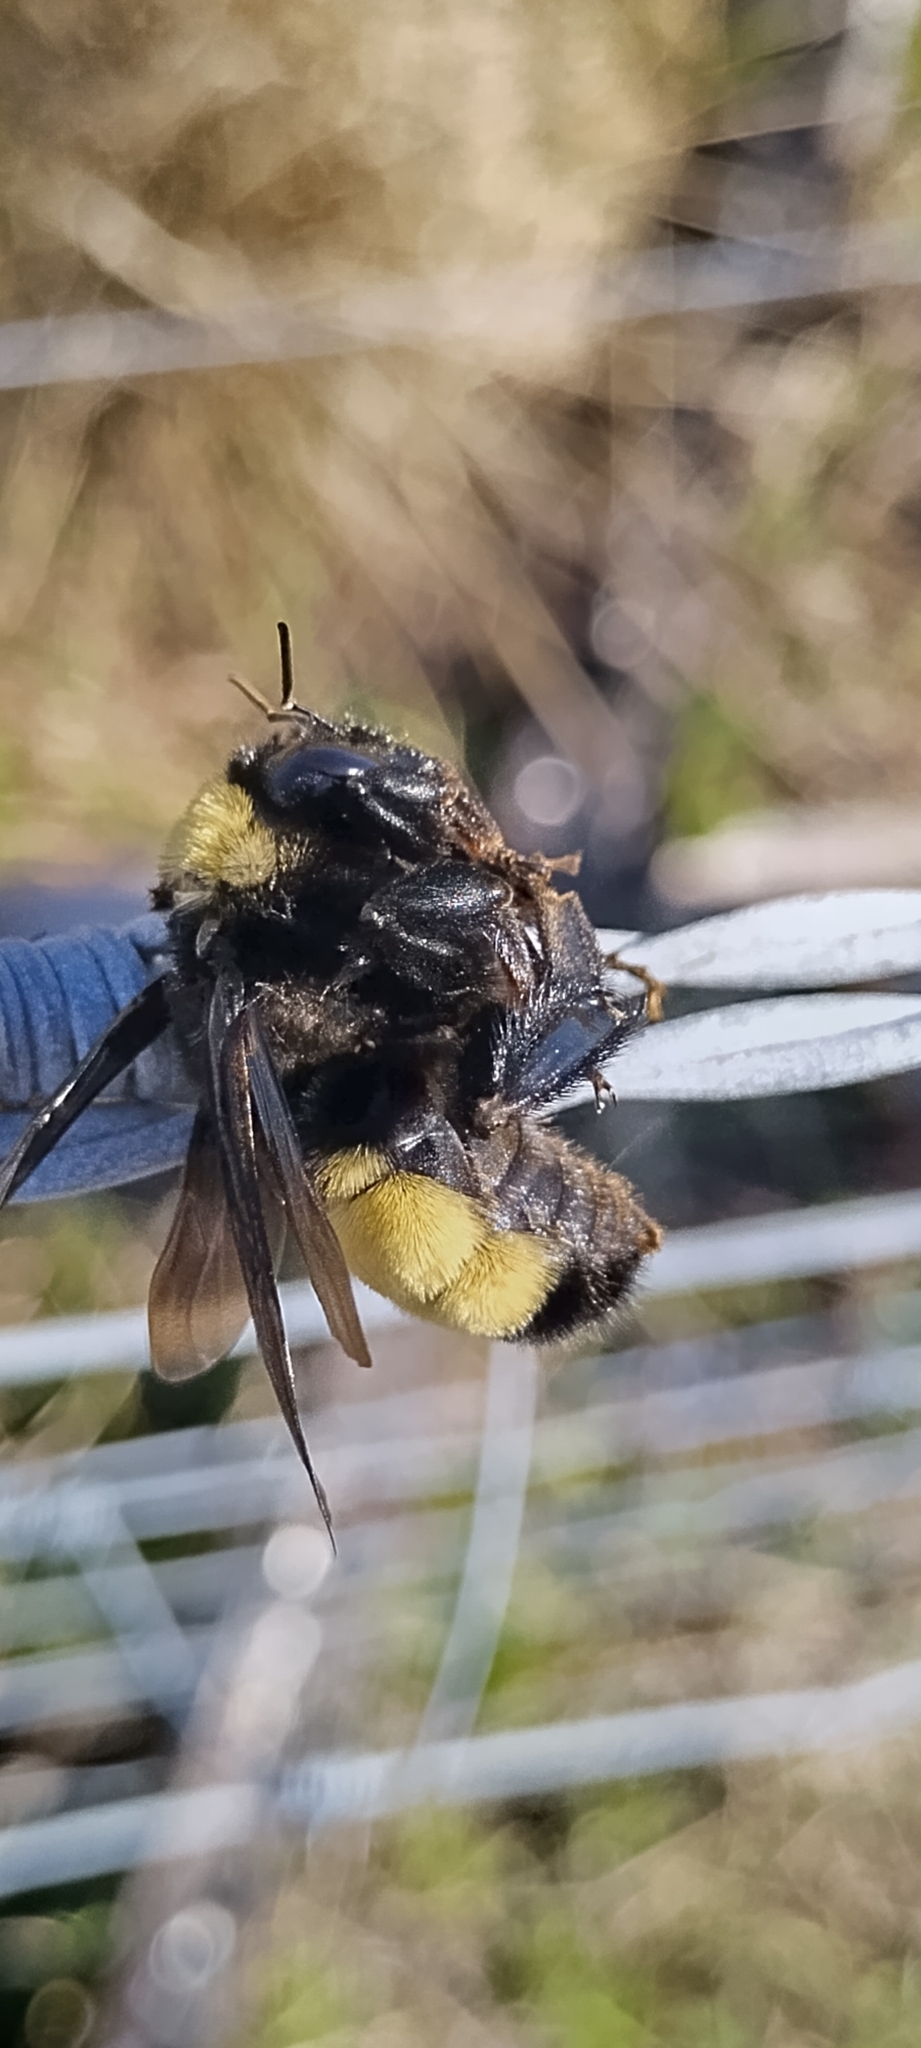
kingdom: Animalia
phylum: Arthropoda
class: Insecta
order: Hymenoptera
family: Apidae
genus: Bombus
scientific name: Bombus pensylvanicus
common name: Bumble bee
